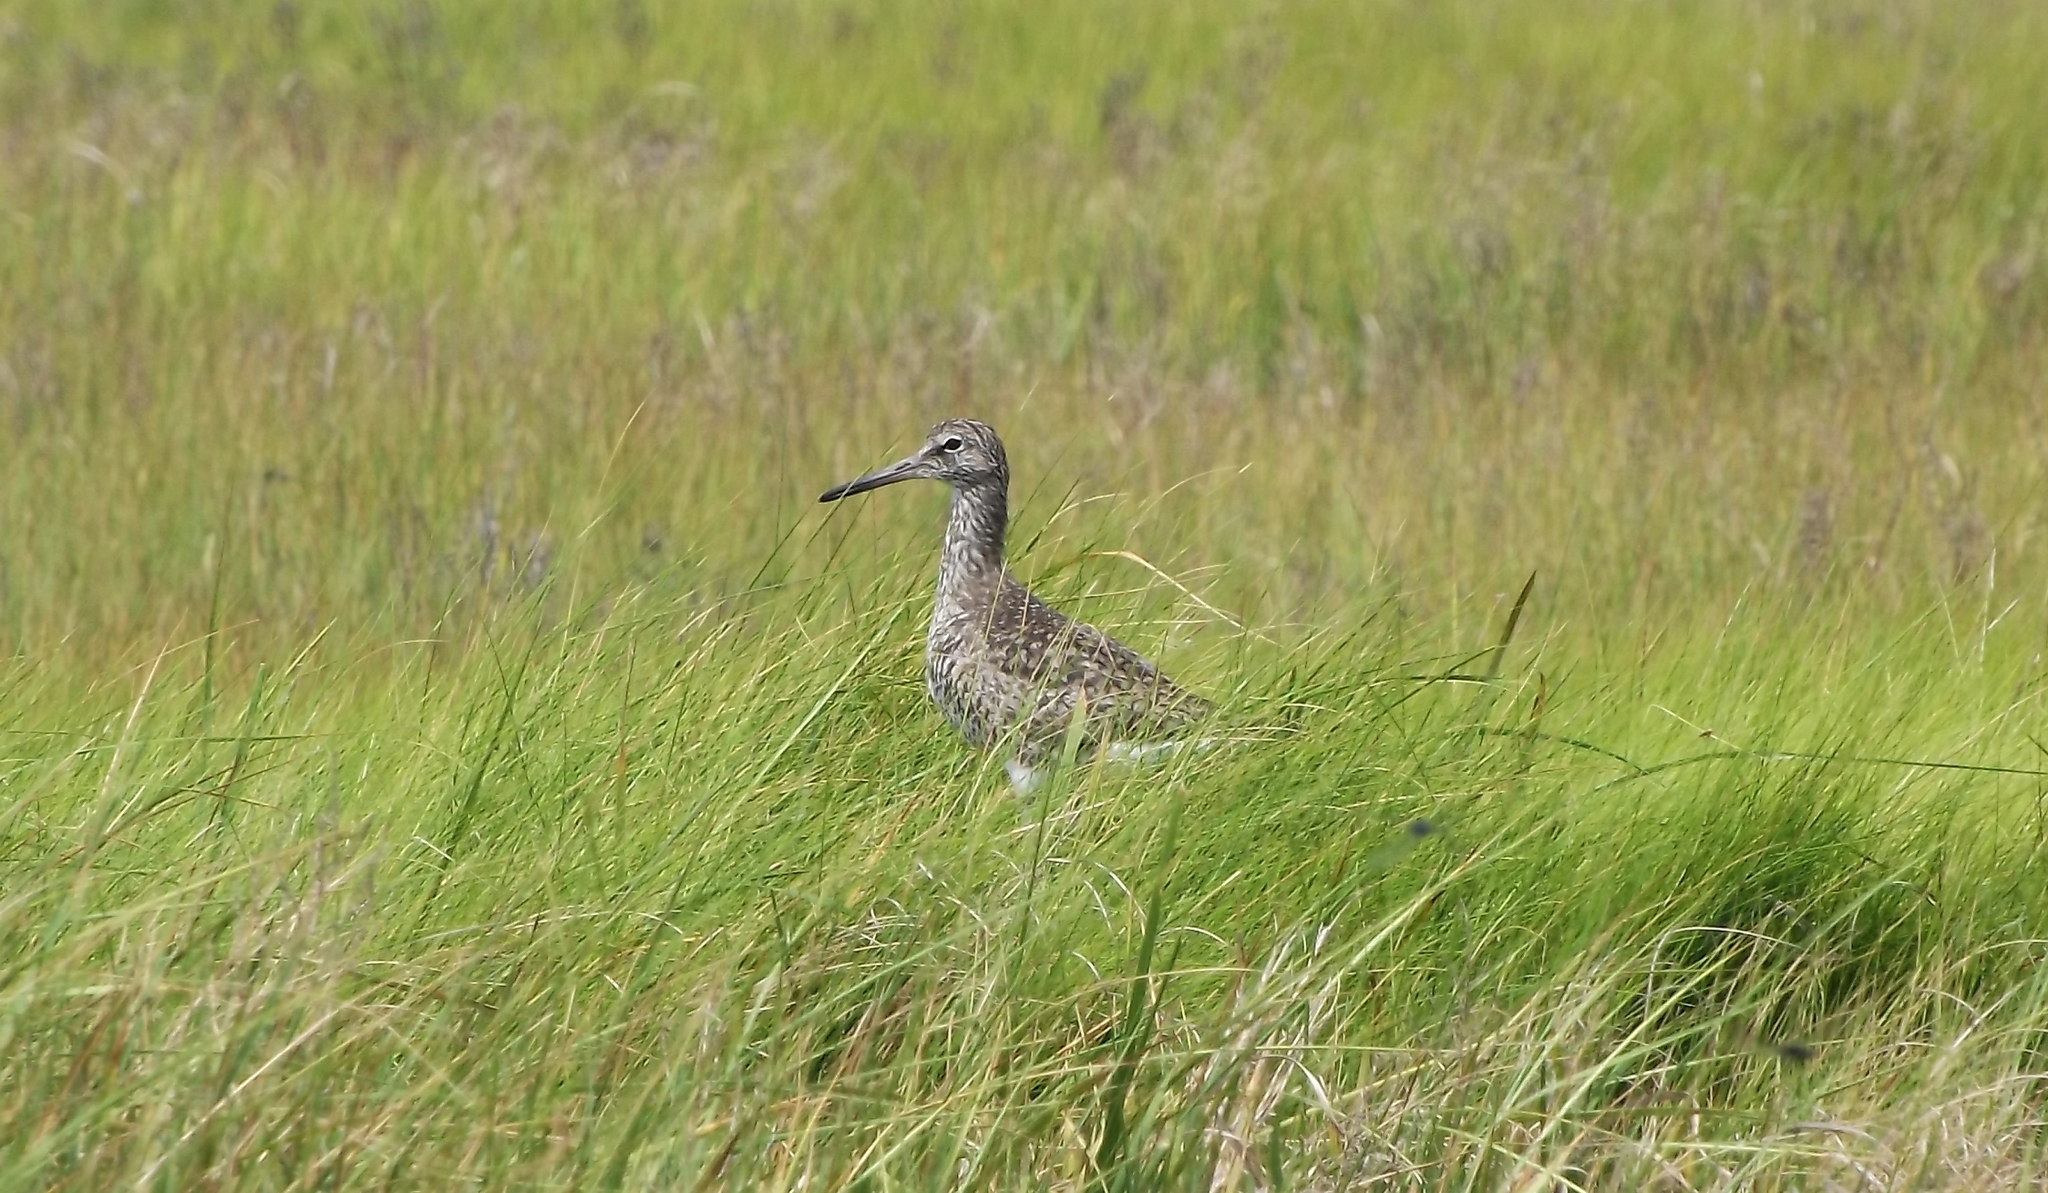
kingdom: Animalia
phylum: Chordata
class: Aves
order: Charadriiformes
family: Scolopacidae
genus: Tringa
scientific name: Tringa semipalmata
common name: Willet
